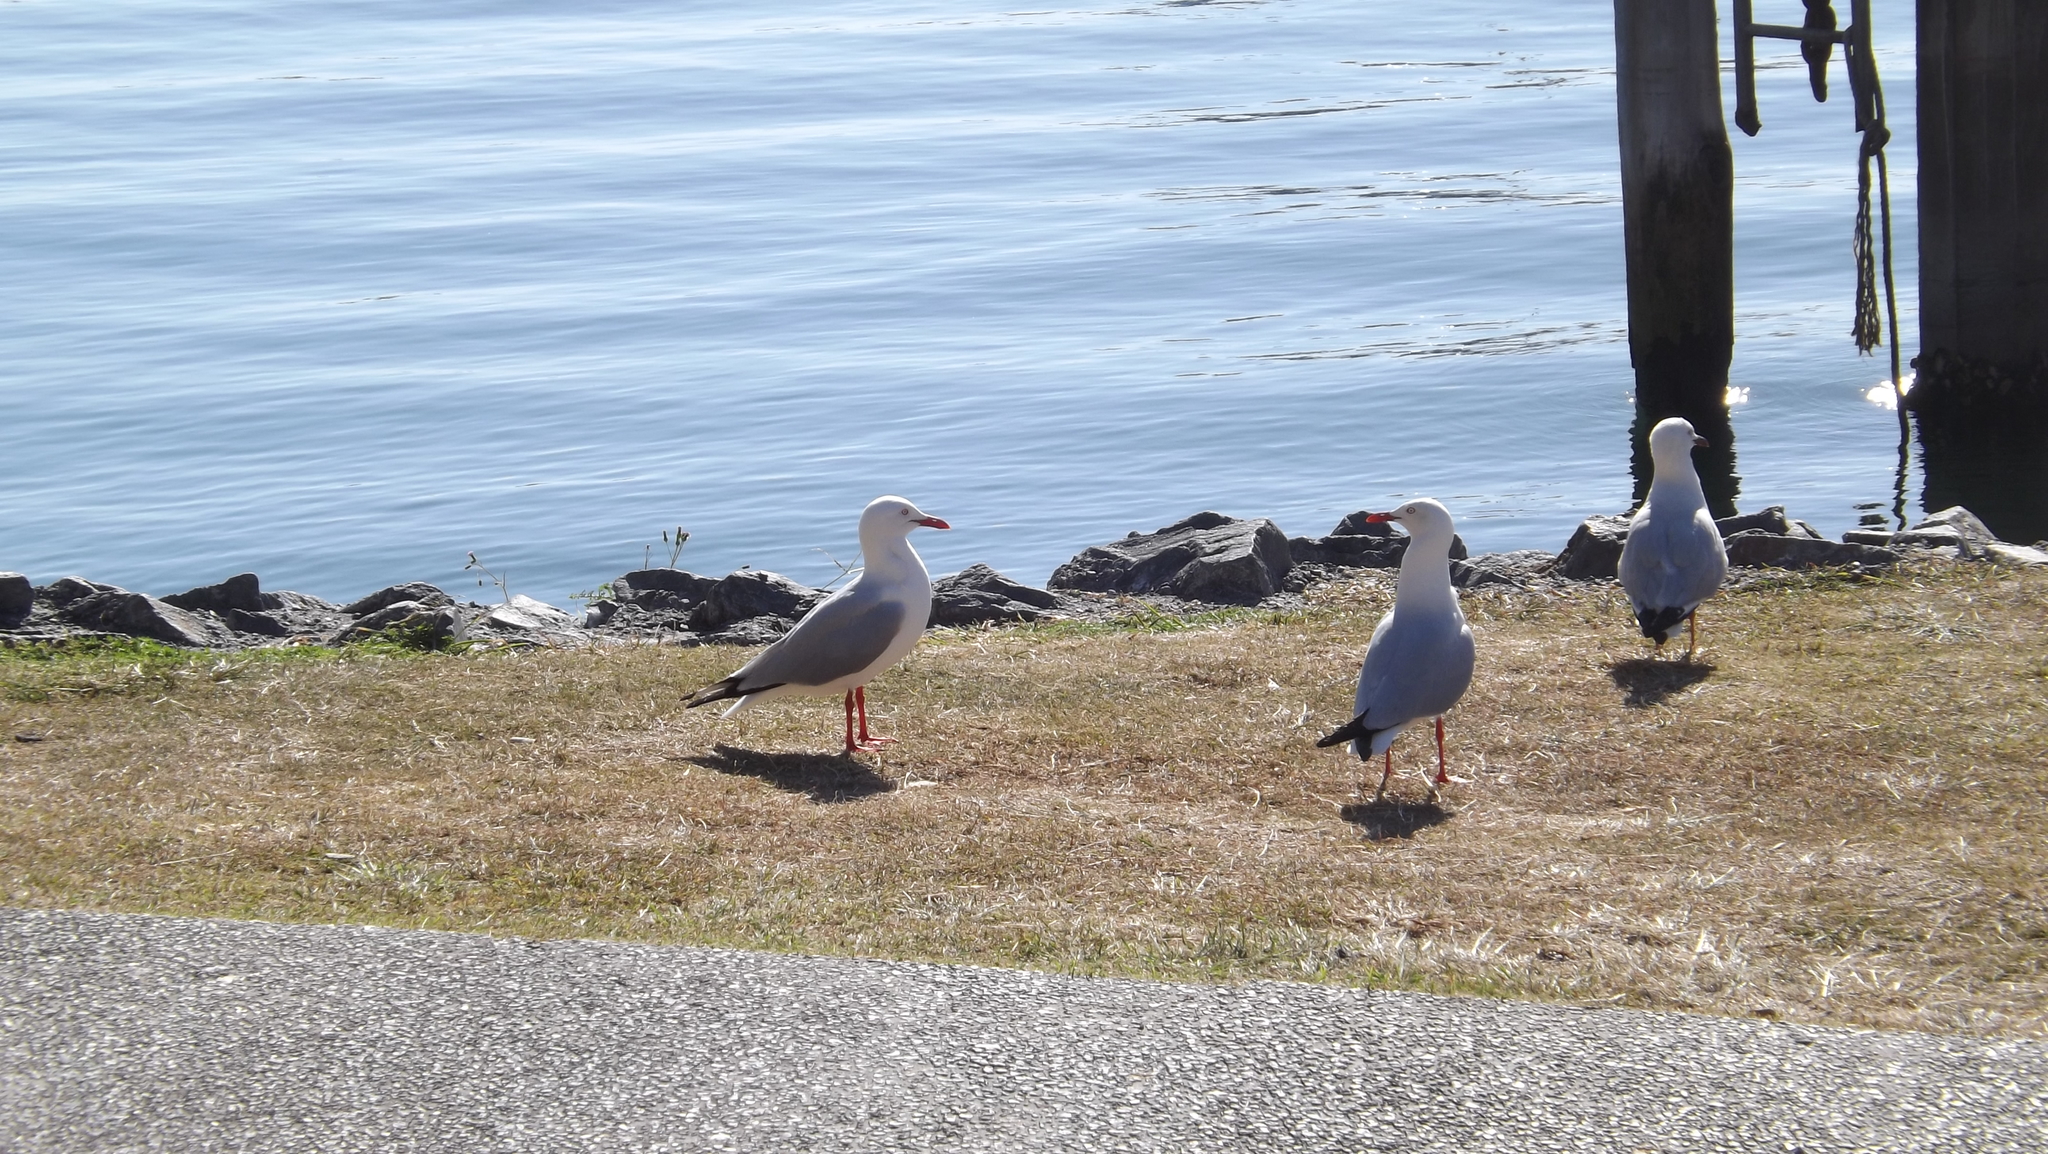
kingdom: Animalia
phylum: Chordata
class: Aves
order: Charadriiformes
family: Laridae
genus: Chroicocephalus
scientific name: Chroicocephalus novaehollandiae
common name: Silver gull
